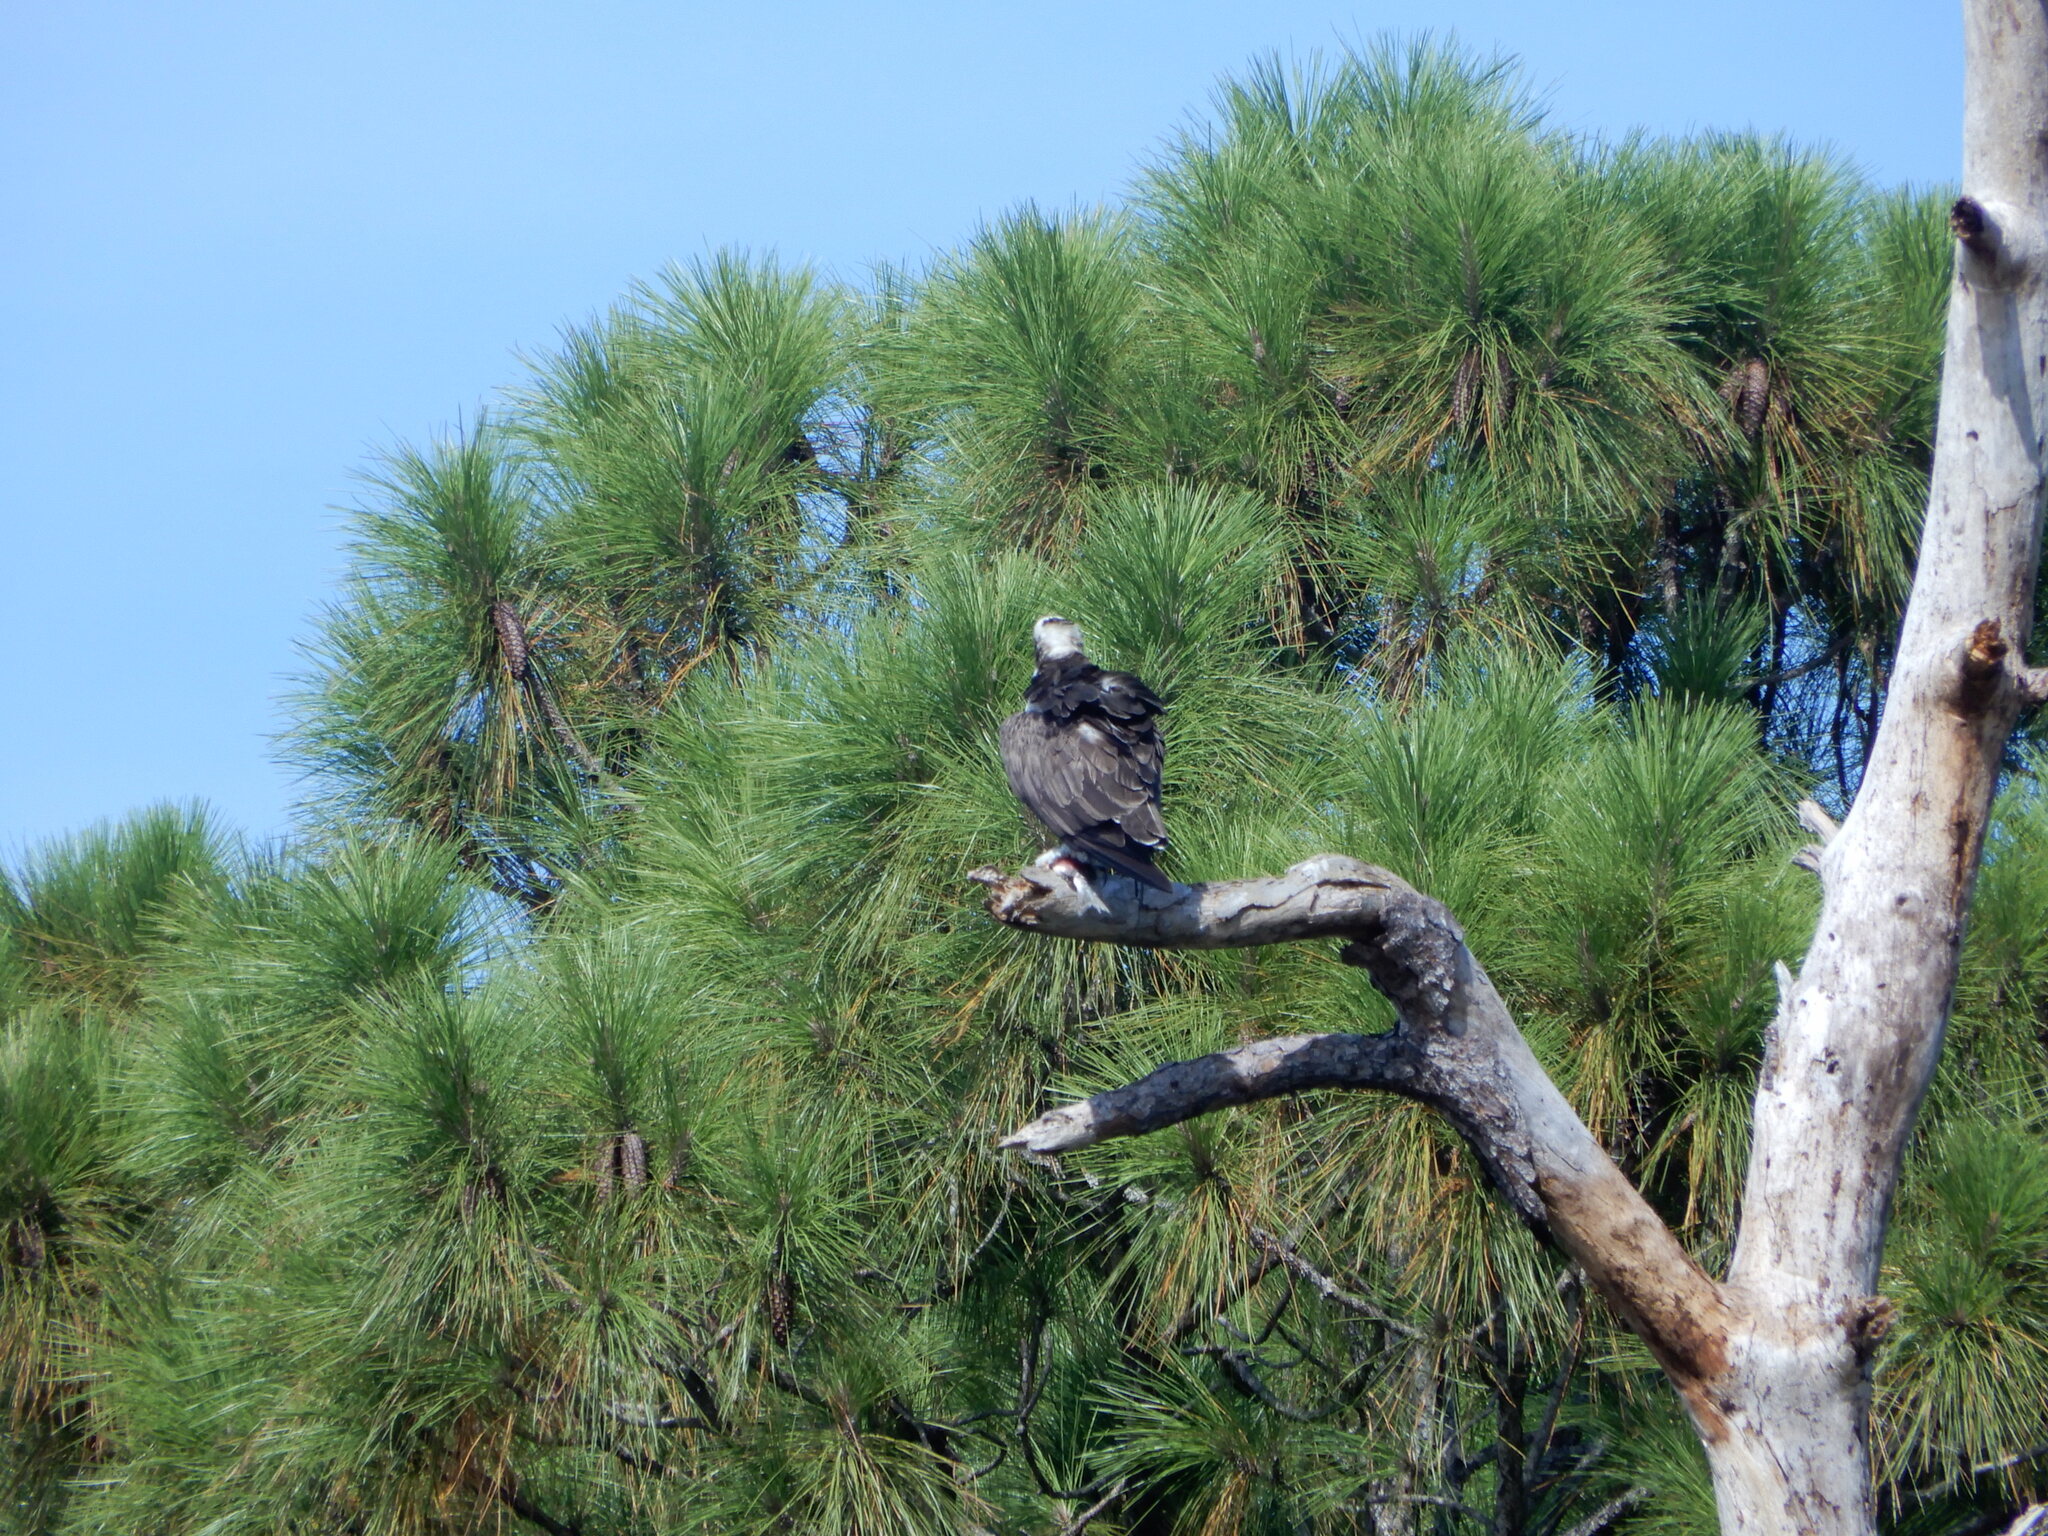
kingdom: Animalia
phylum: Chordata
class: Aves
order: Accipitriformes
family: Pandionidae
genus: Pandion
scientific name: Pandion haliaetus
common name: Osprey
